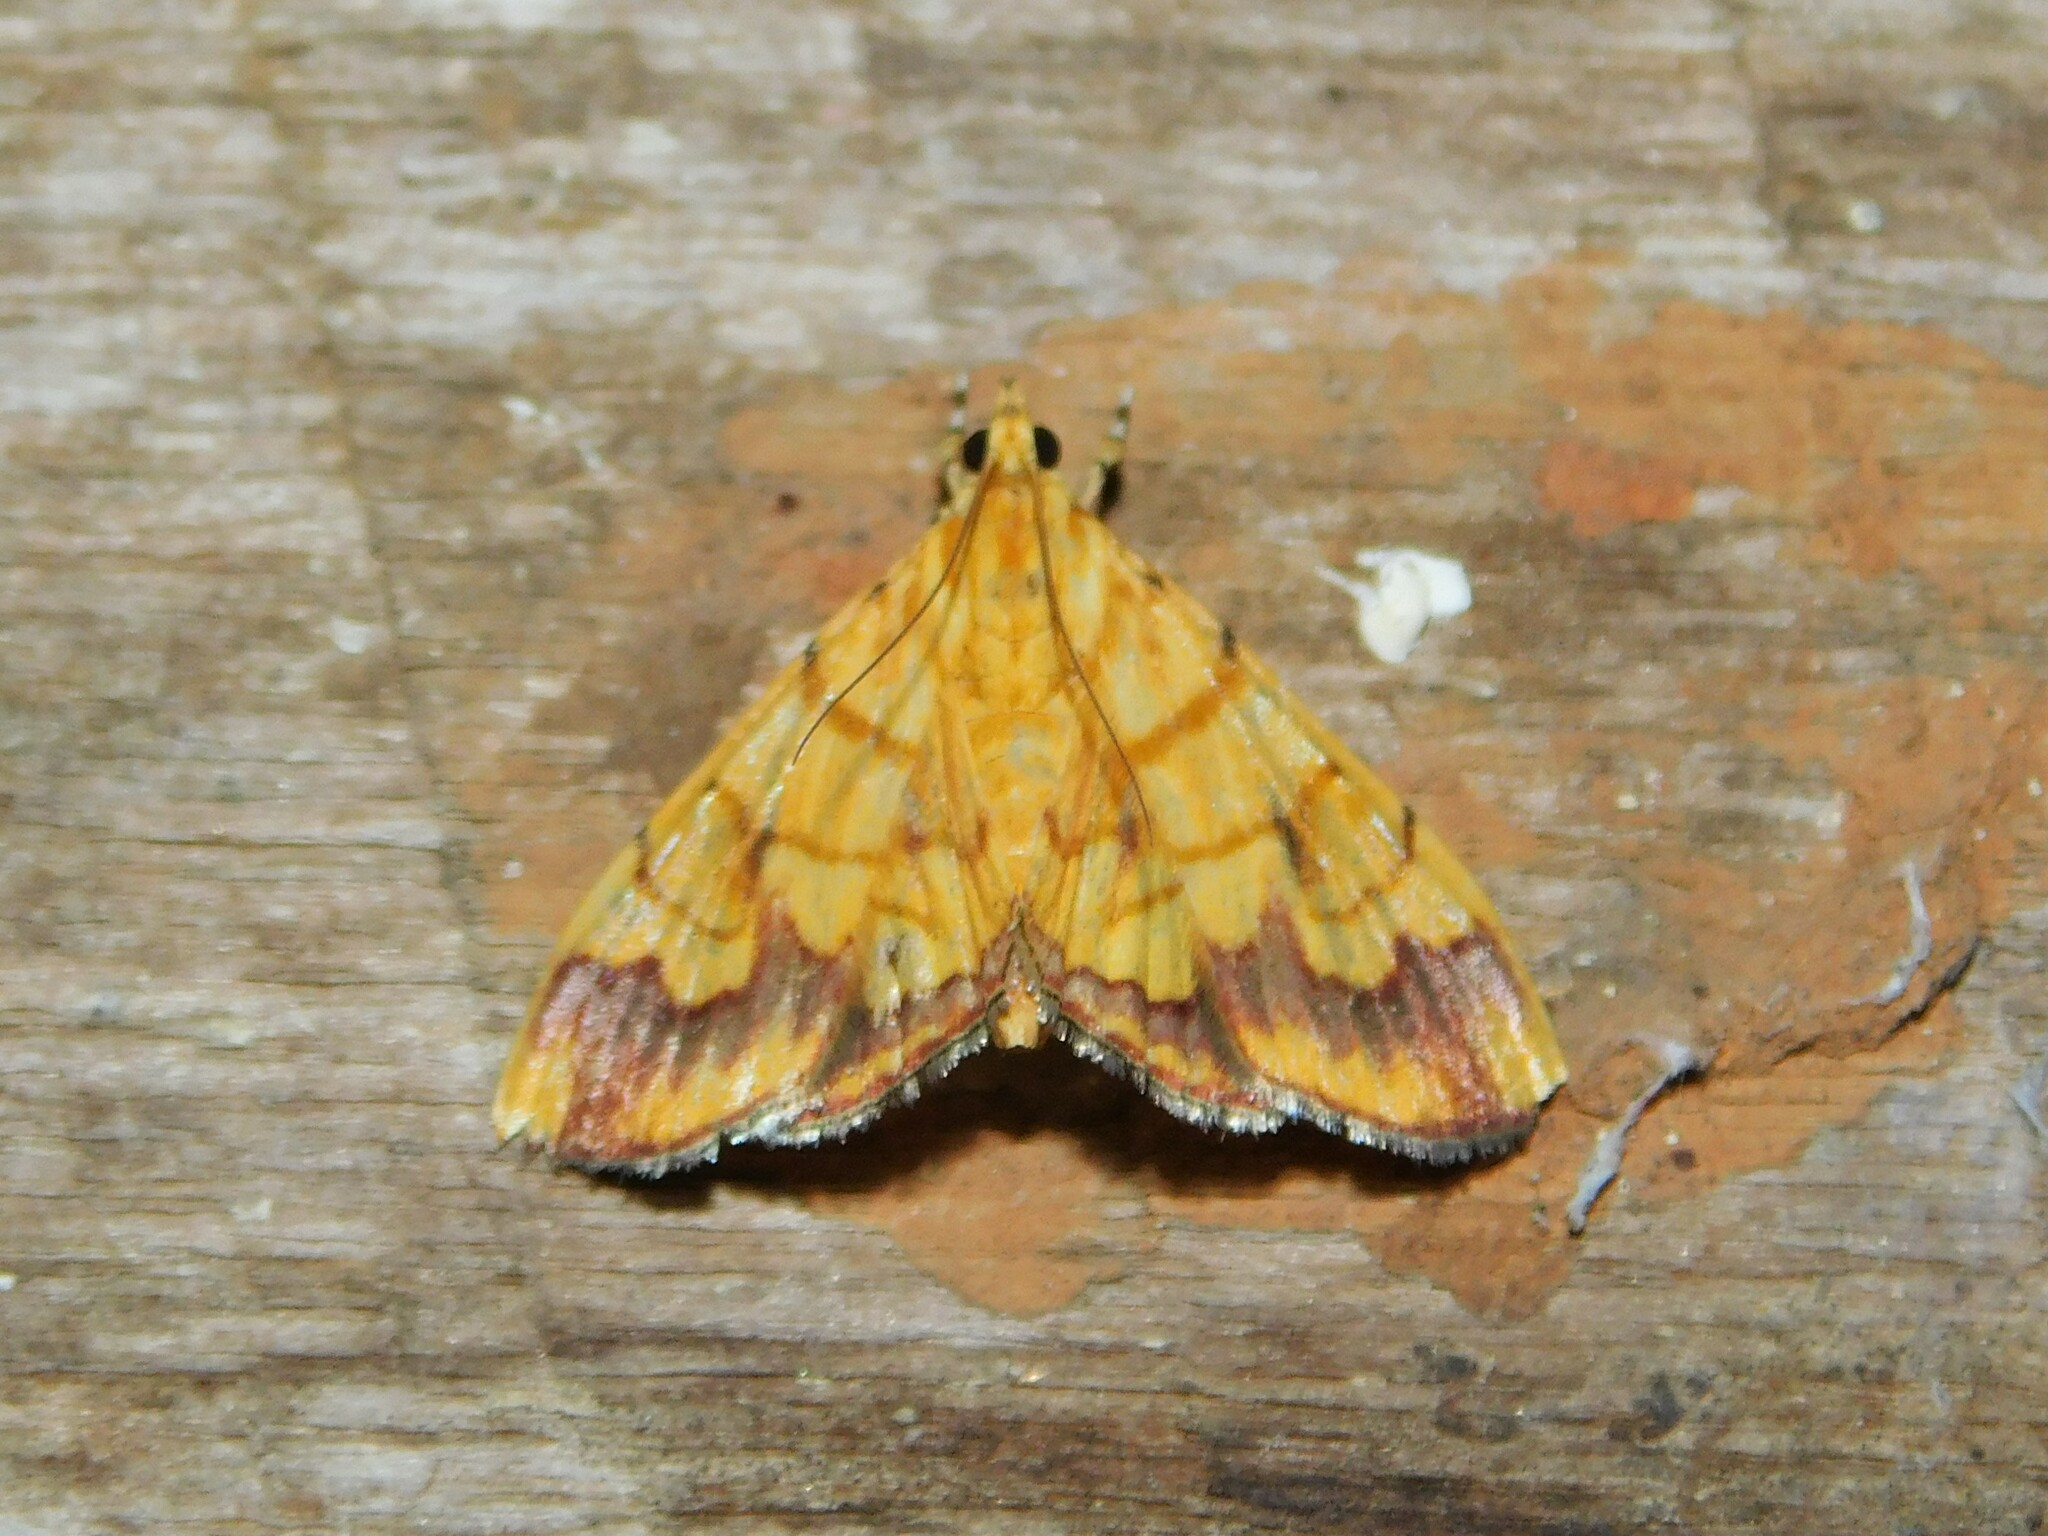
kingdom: Animalia
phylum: Arthropoda
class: Insecta
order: Lepidoptera
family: Crambidae
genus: Cryptosara
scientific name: Cryptosara caritalis
